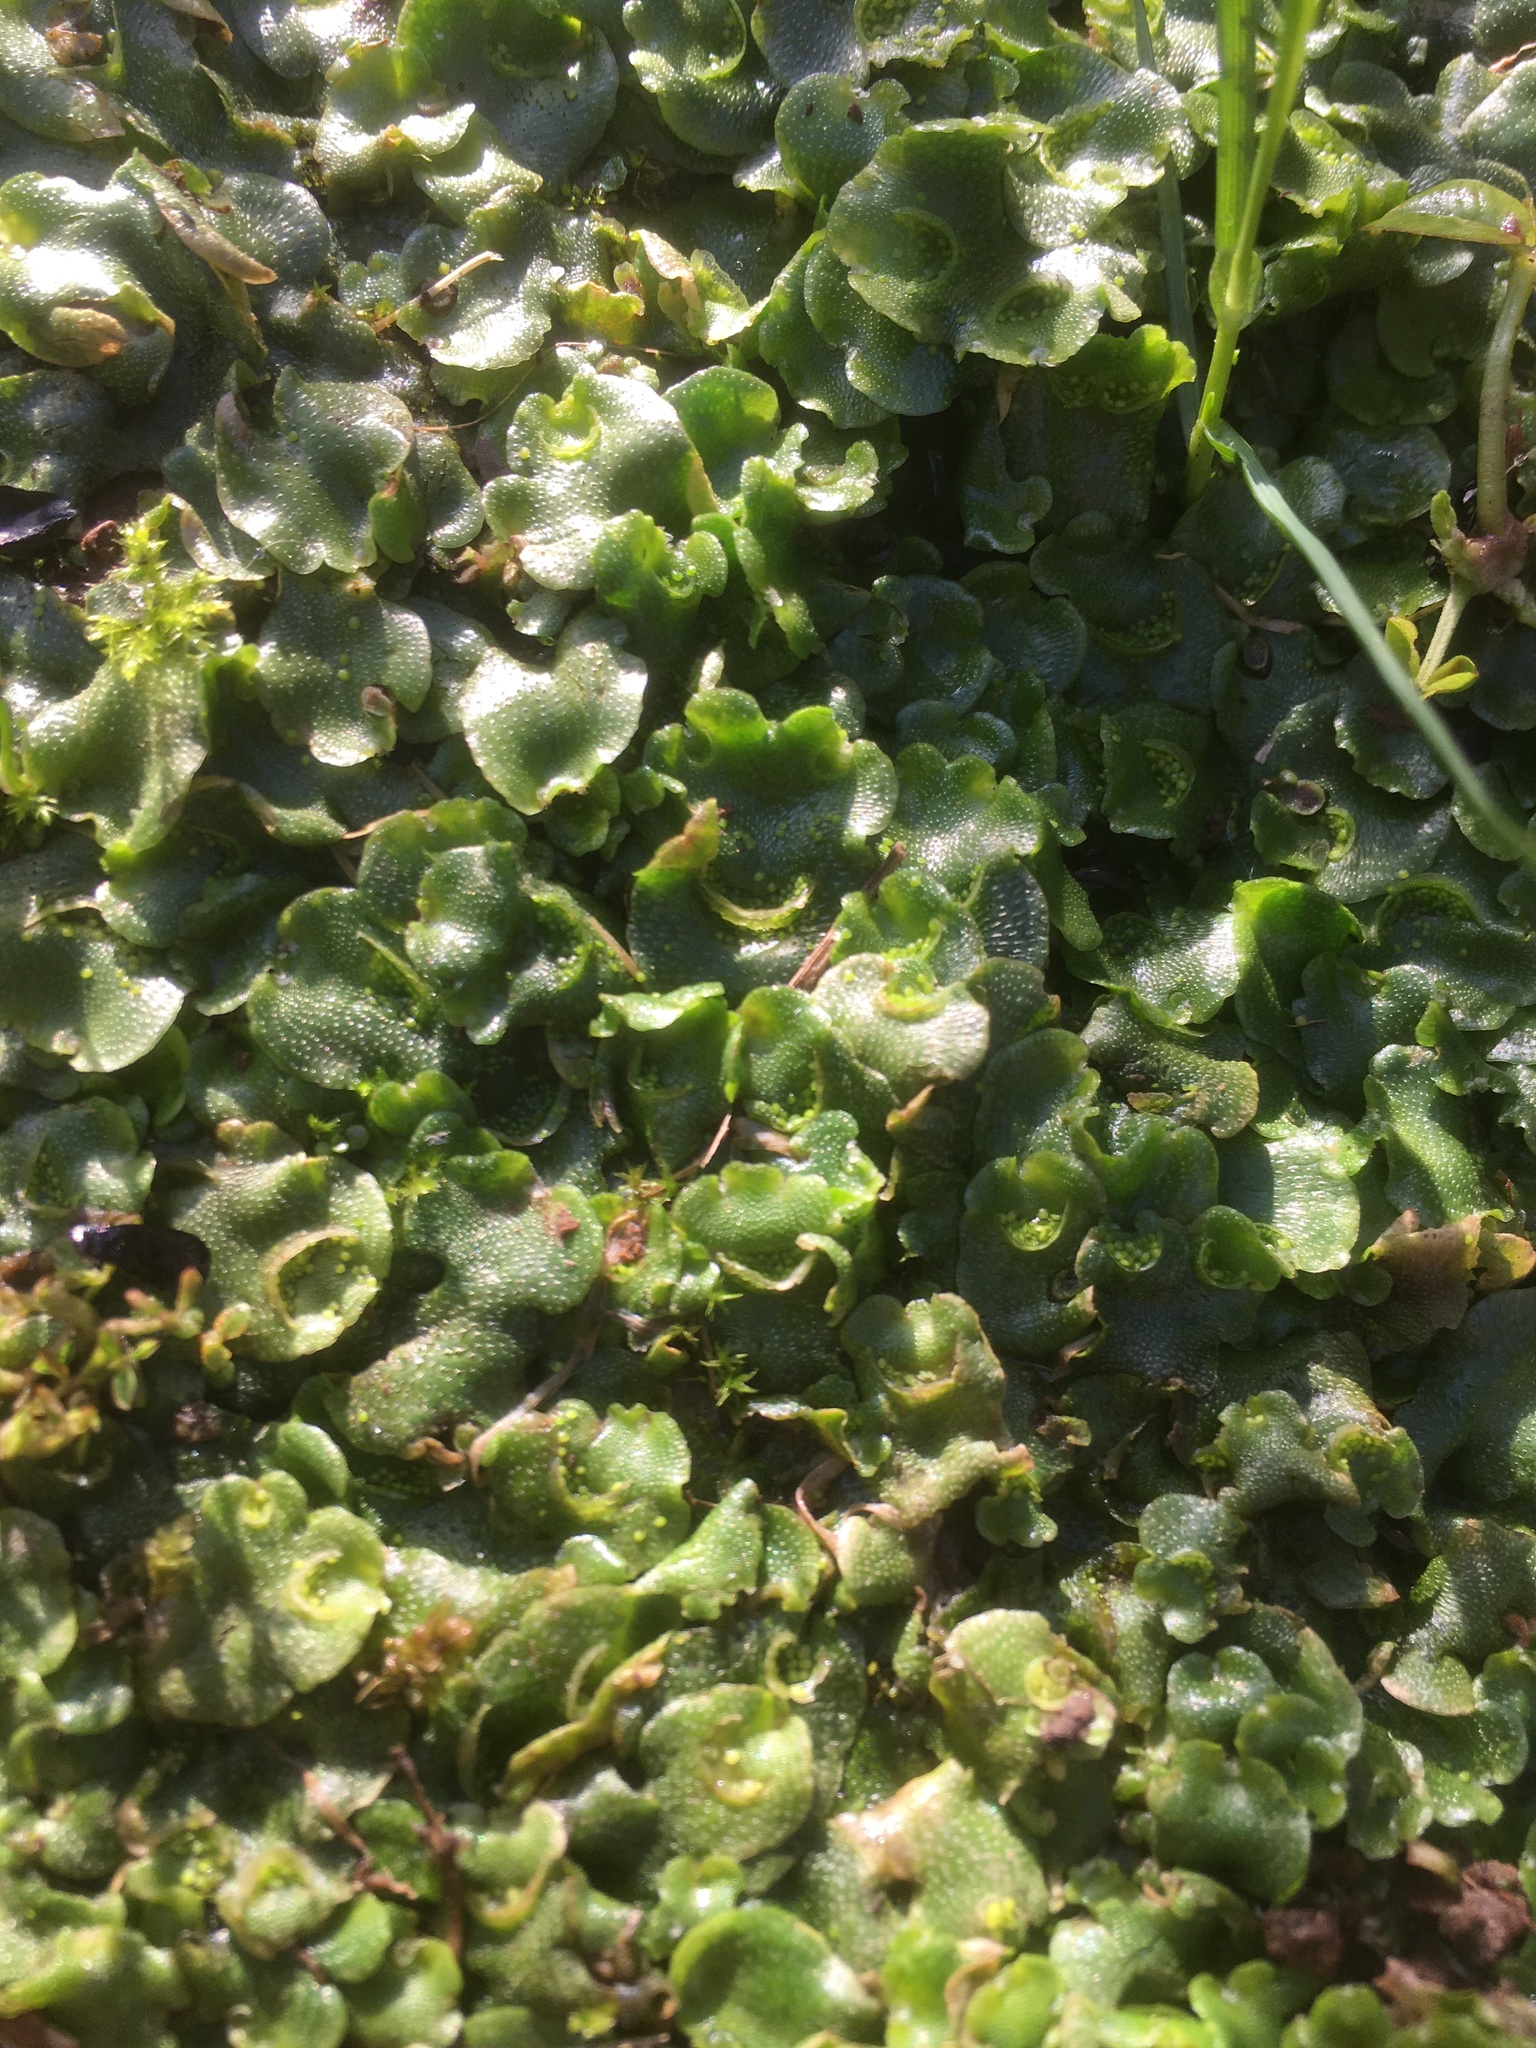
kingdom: Plantae
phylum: Marchantiophyta
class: Marchantiopsida
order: Lunulariales
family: Lunulariaceae
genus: Lunularia
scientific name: Lunularia cruciata
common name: Crescent-cup liverwort
